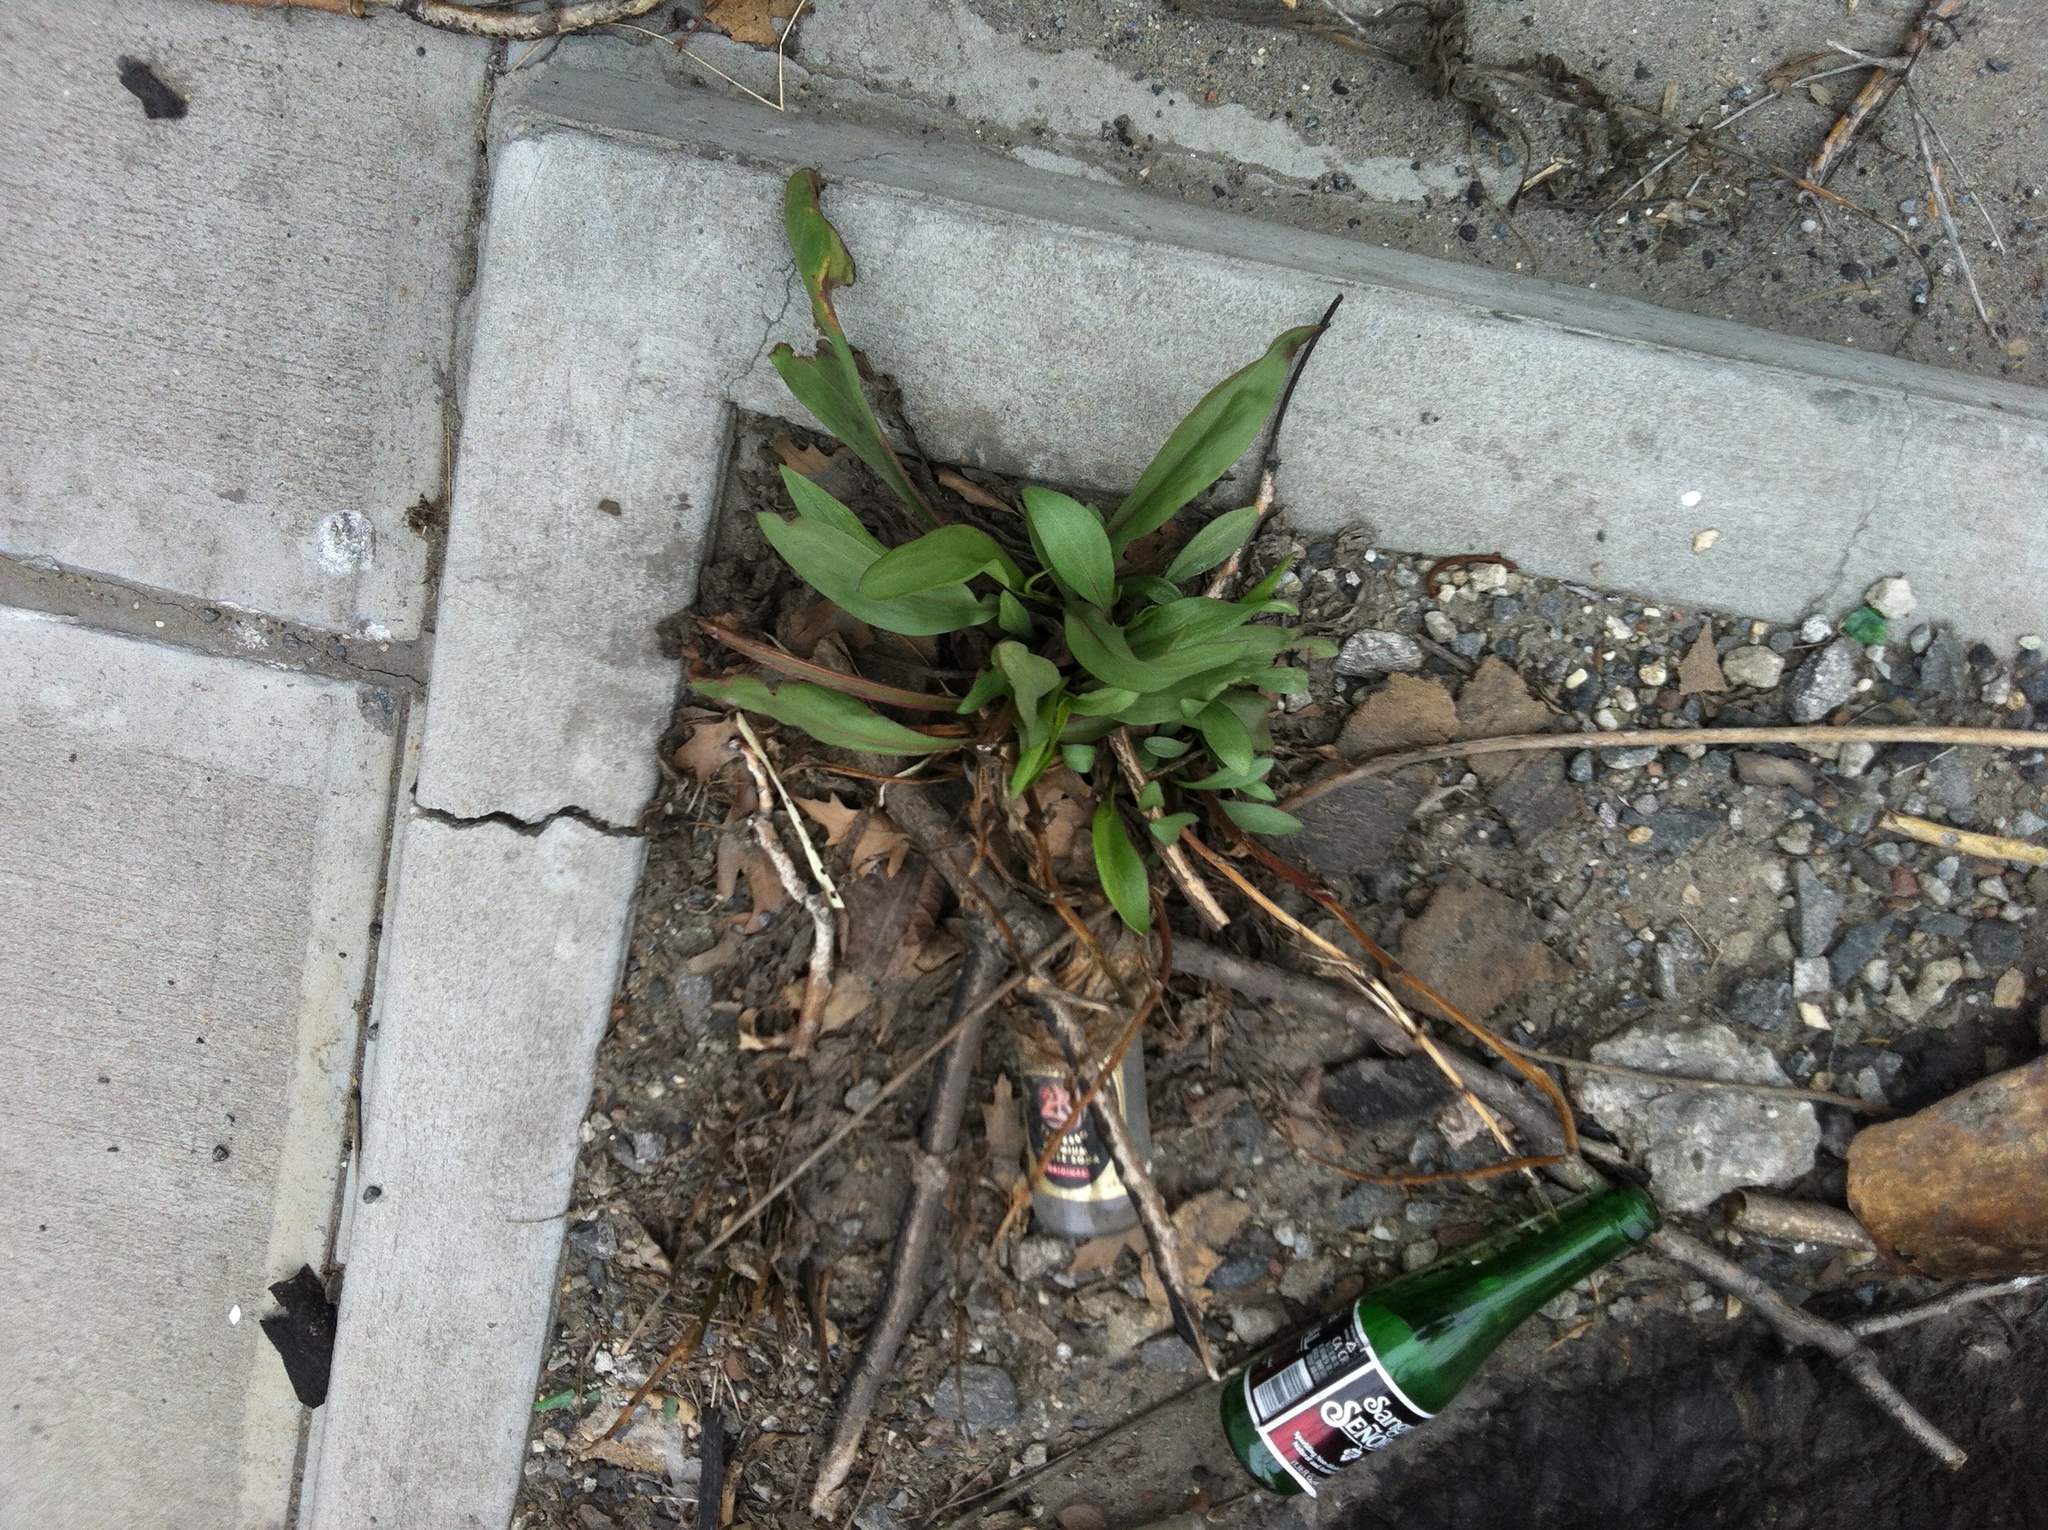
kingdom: Plantae
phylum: Tracheophyta
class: Magnoliopsida
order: Asterales
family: Asteraceae
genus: Solidago
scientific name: Solidago sempervirens
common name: Salt-marsh goldenrod
